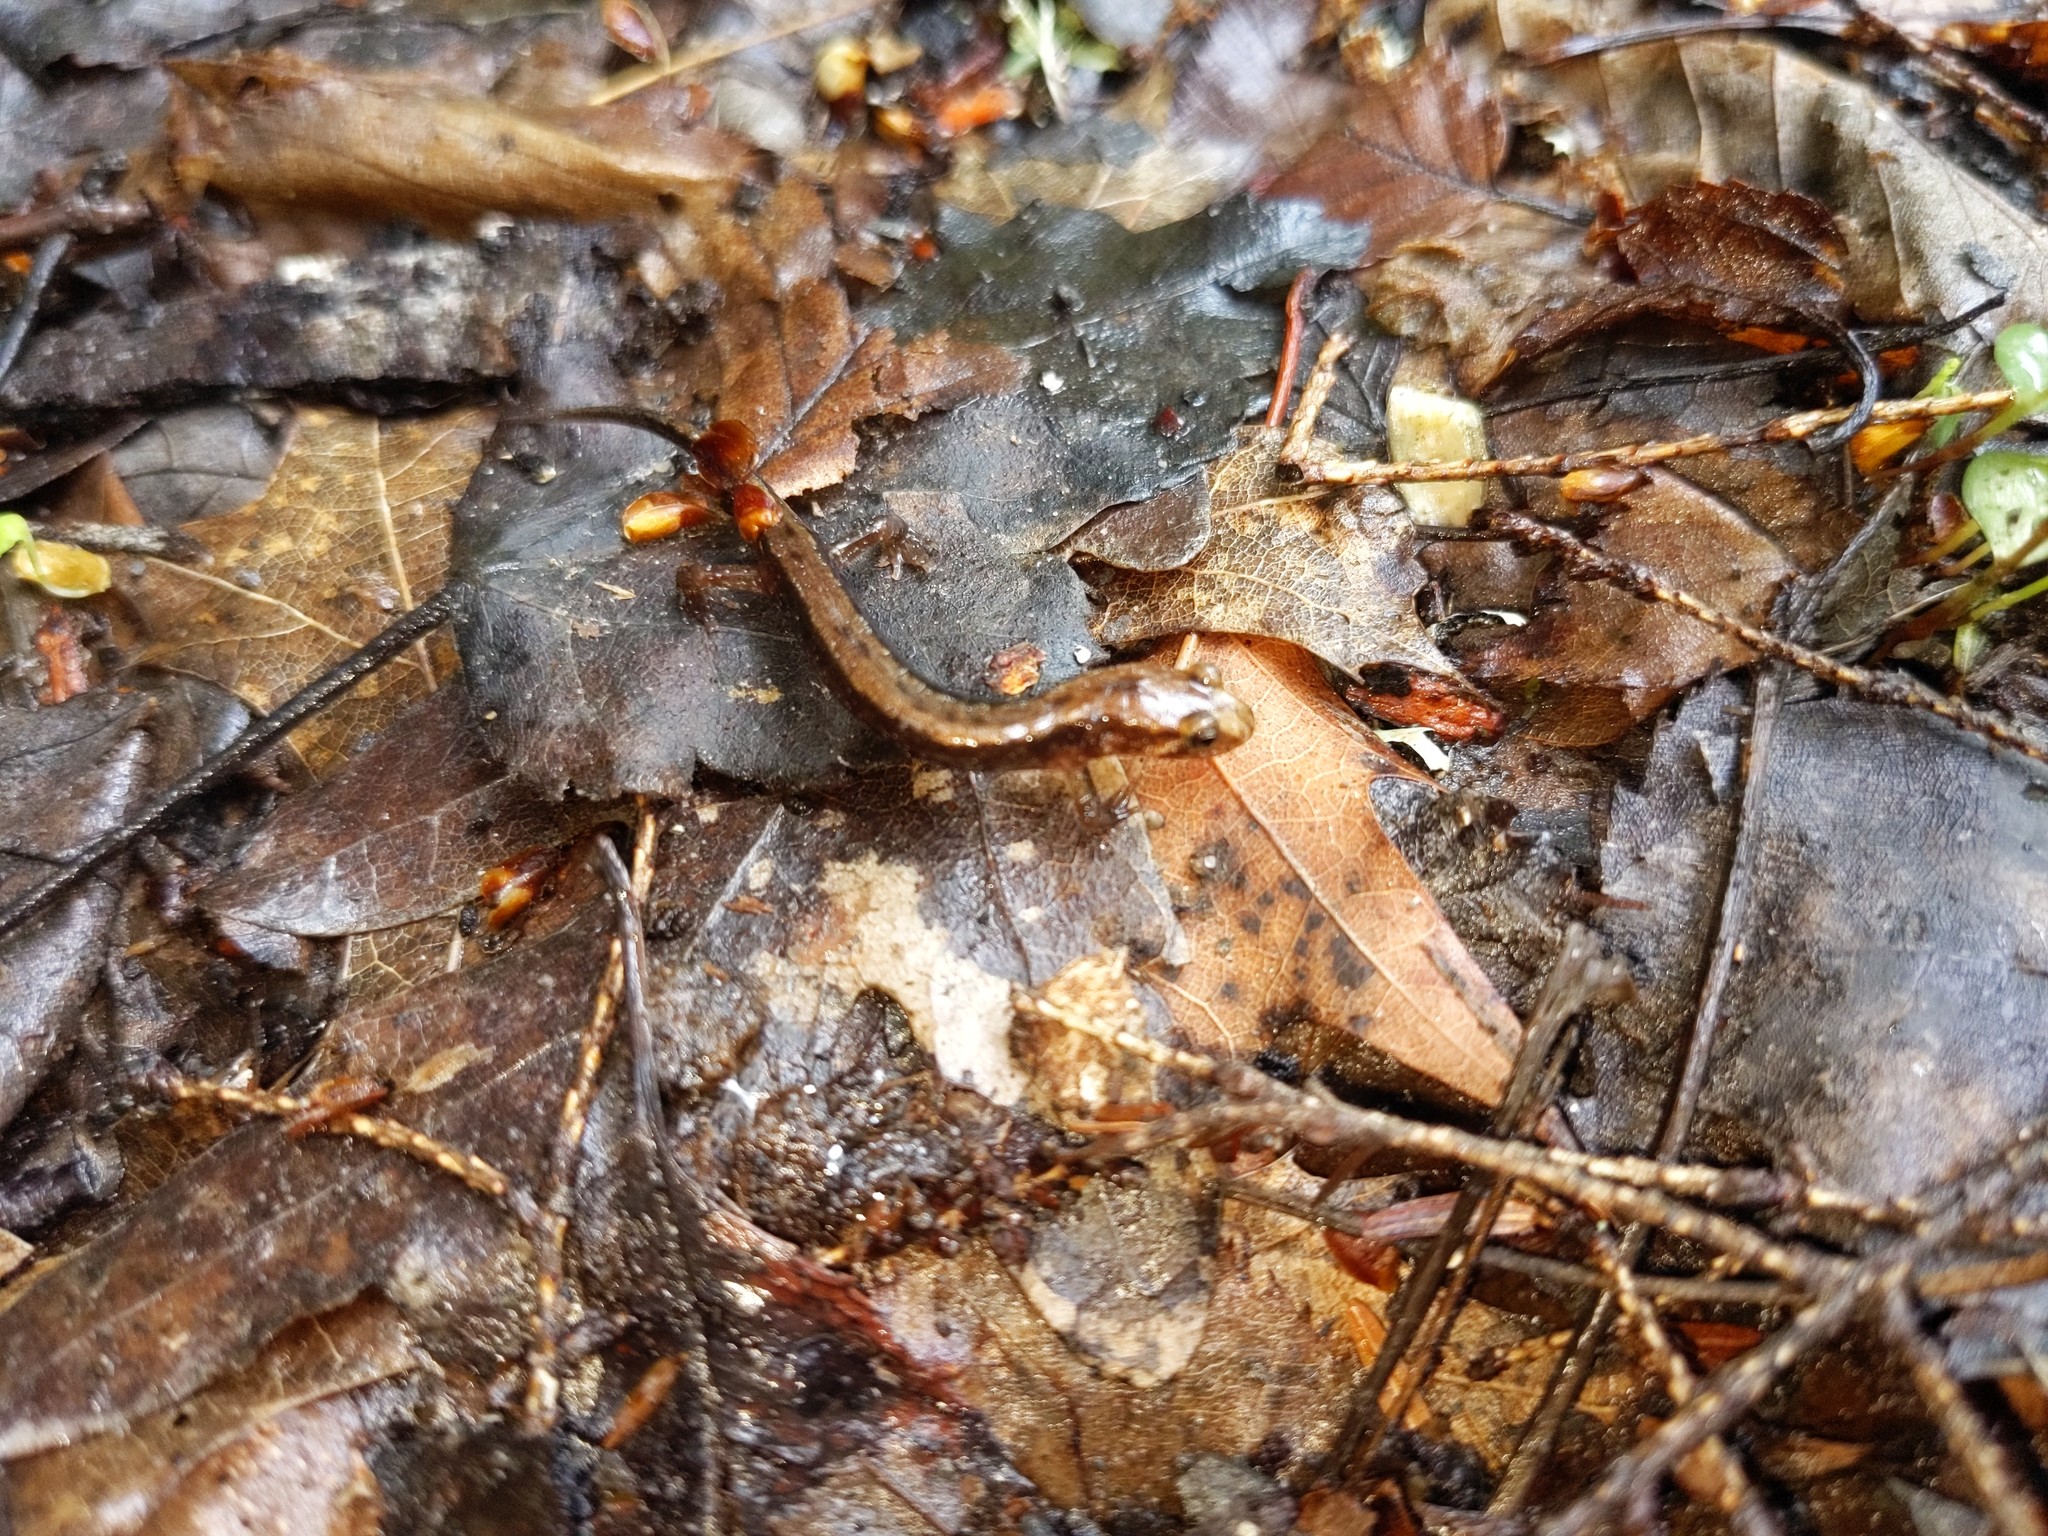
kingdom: Animalia
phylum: Chordata
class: Amphibia
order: Caudata
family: Plethodontidae
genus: Desmognathus
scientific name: Desmognathus ochrophaeus
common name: Allegheny mountain dusky salamander
